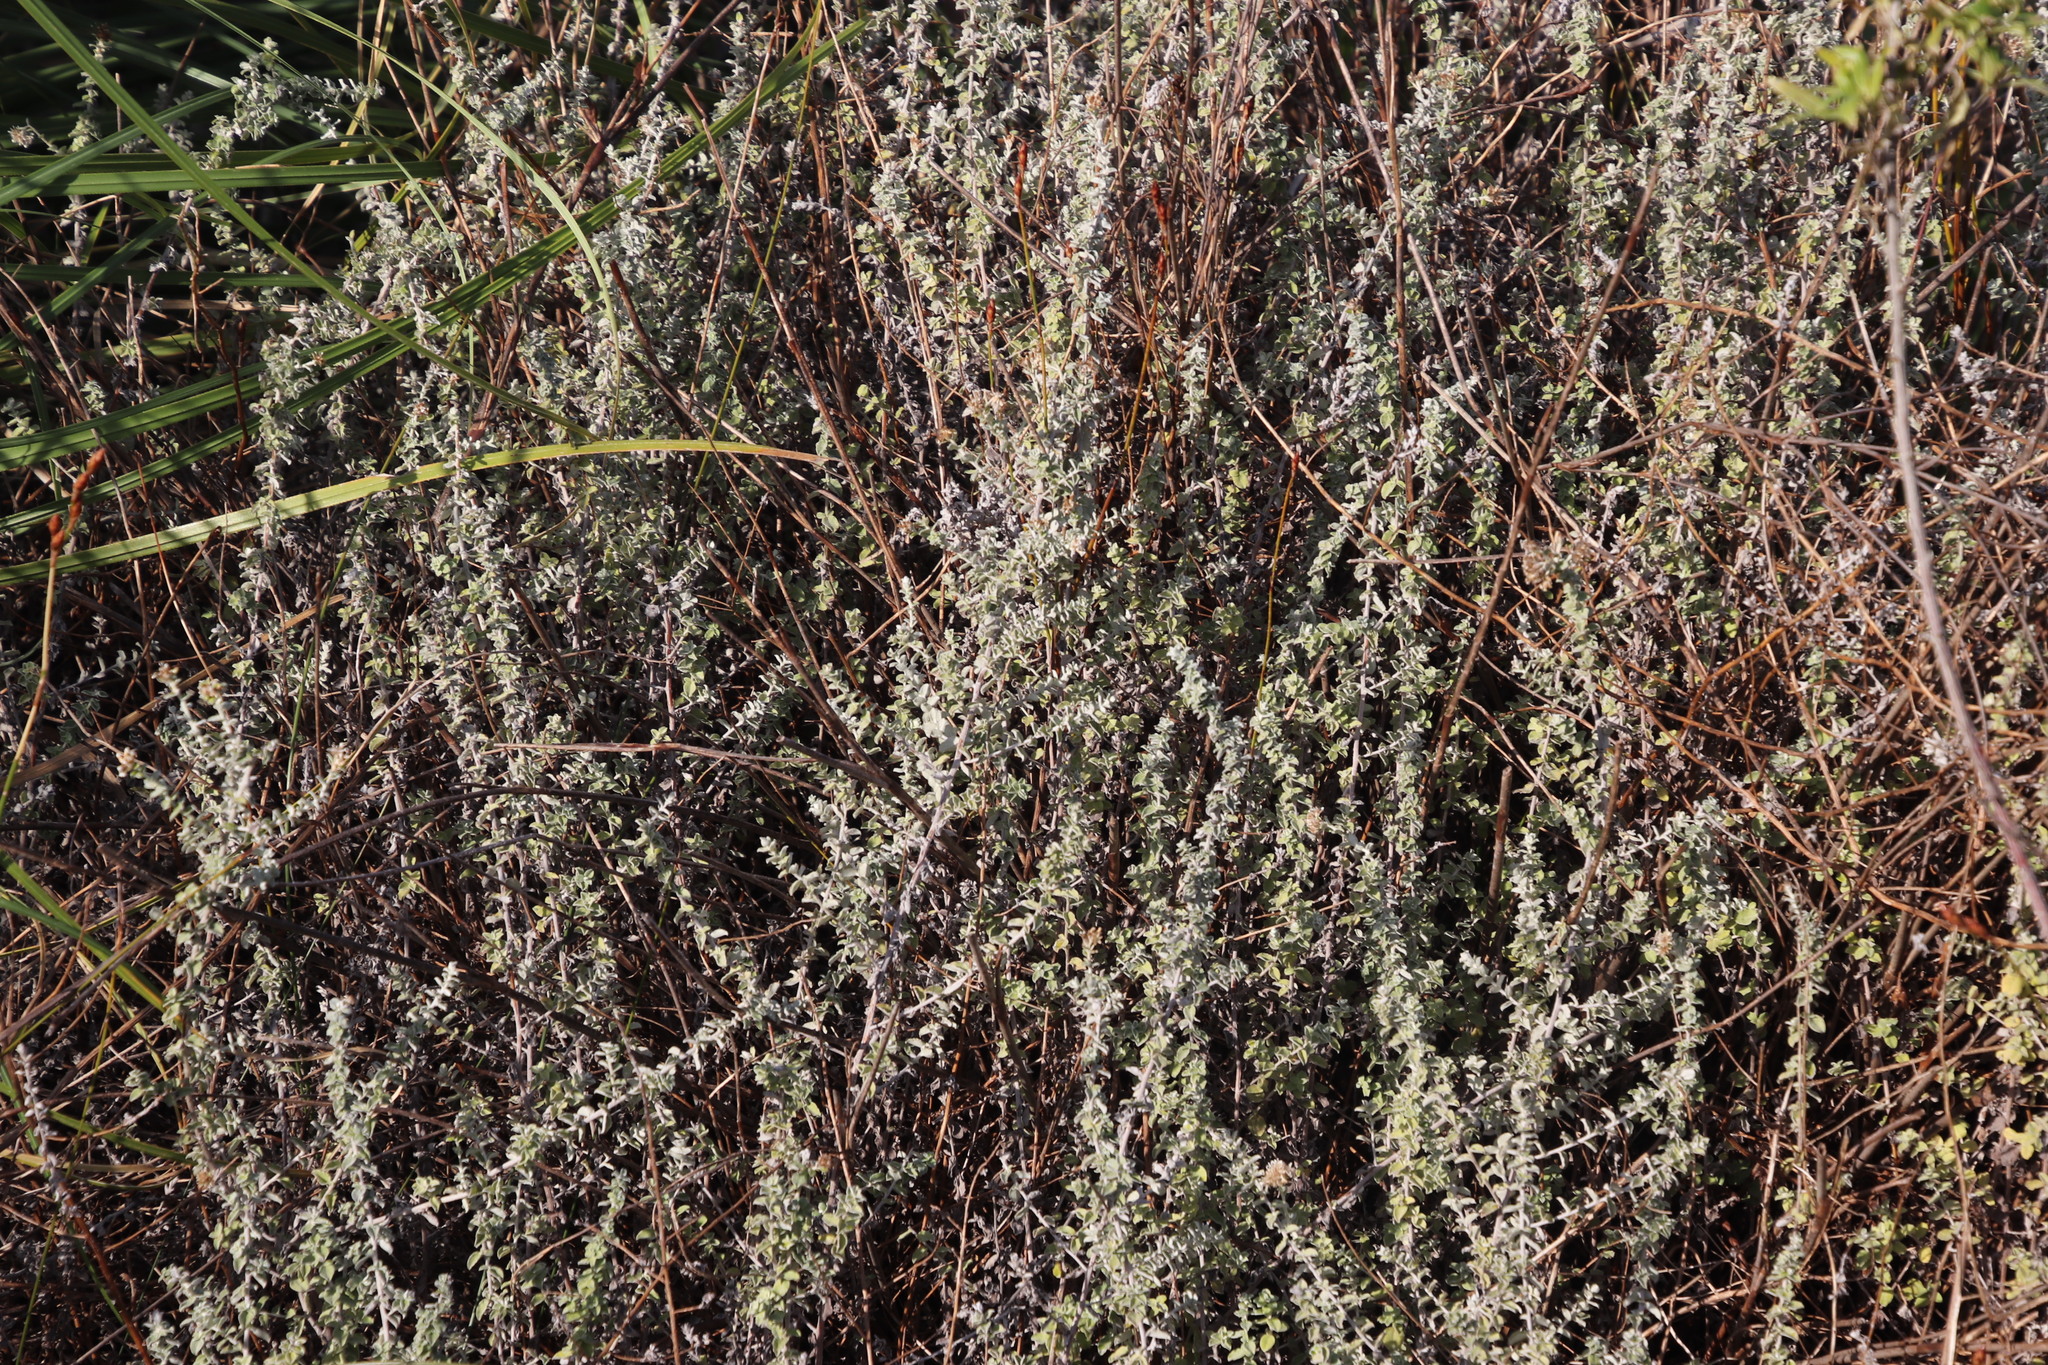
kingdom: Plantae
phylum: Tracheophyta
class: Magnoliopsida
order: Asterales
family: Asteraceae
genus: Plecostachys
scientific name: Plecostachys serpyllifolia
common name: Petite licorice
